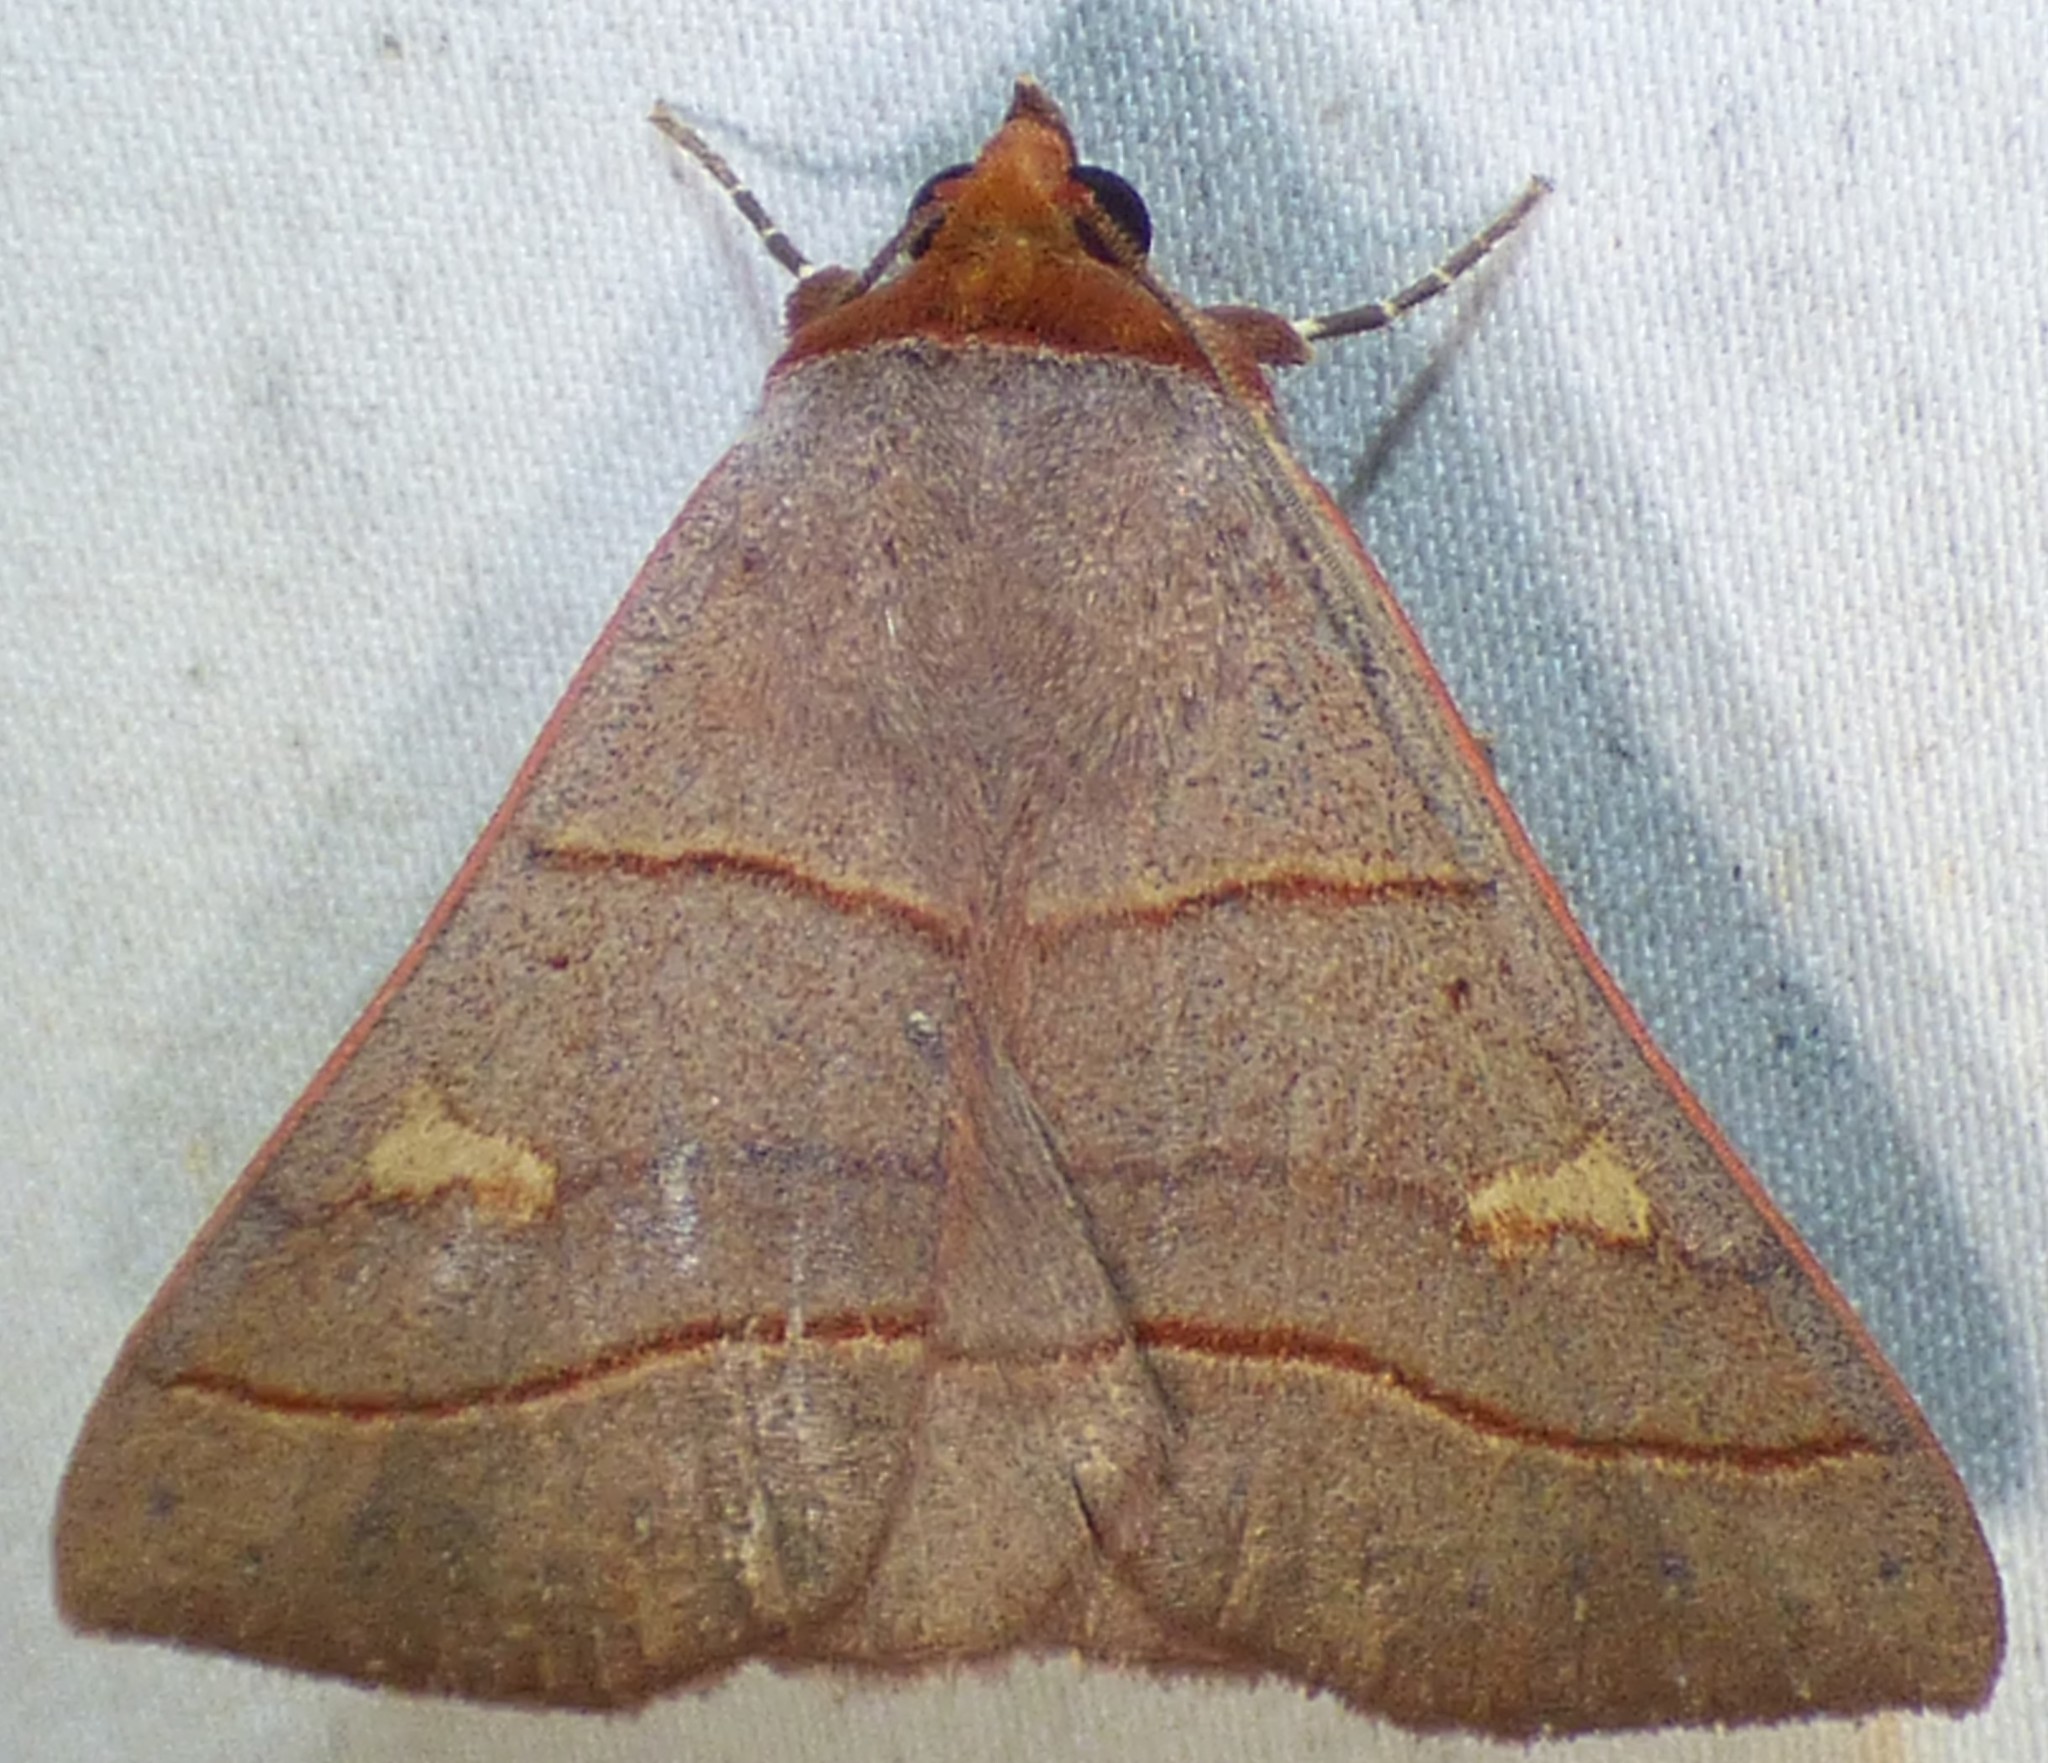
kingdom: Animalia
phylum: Arthropoda
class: Insecta
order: Lepidoptera
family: Erebidae
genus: Panopoda
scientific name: Panopoda rufimargo
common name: Red-lined panopoda moth
